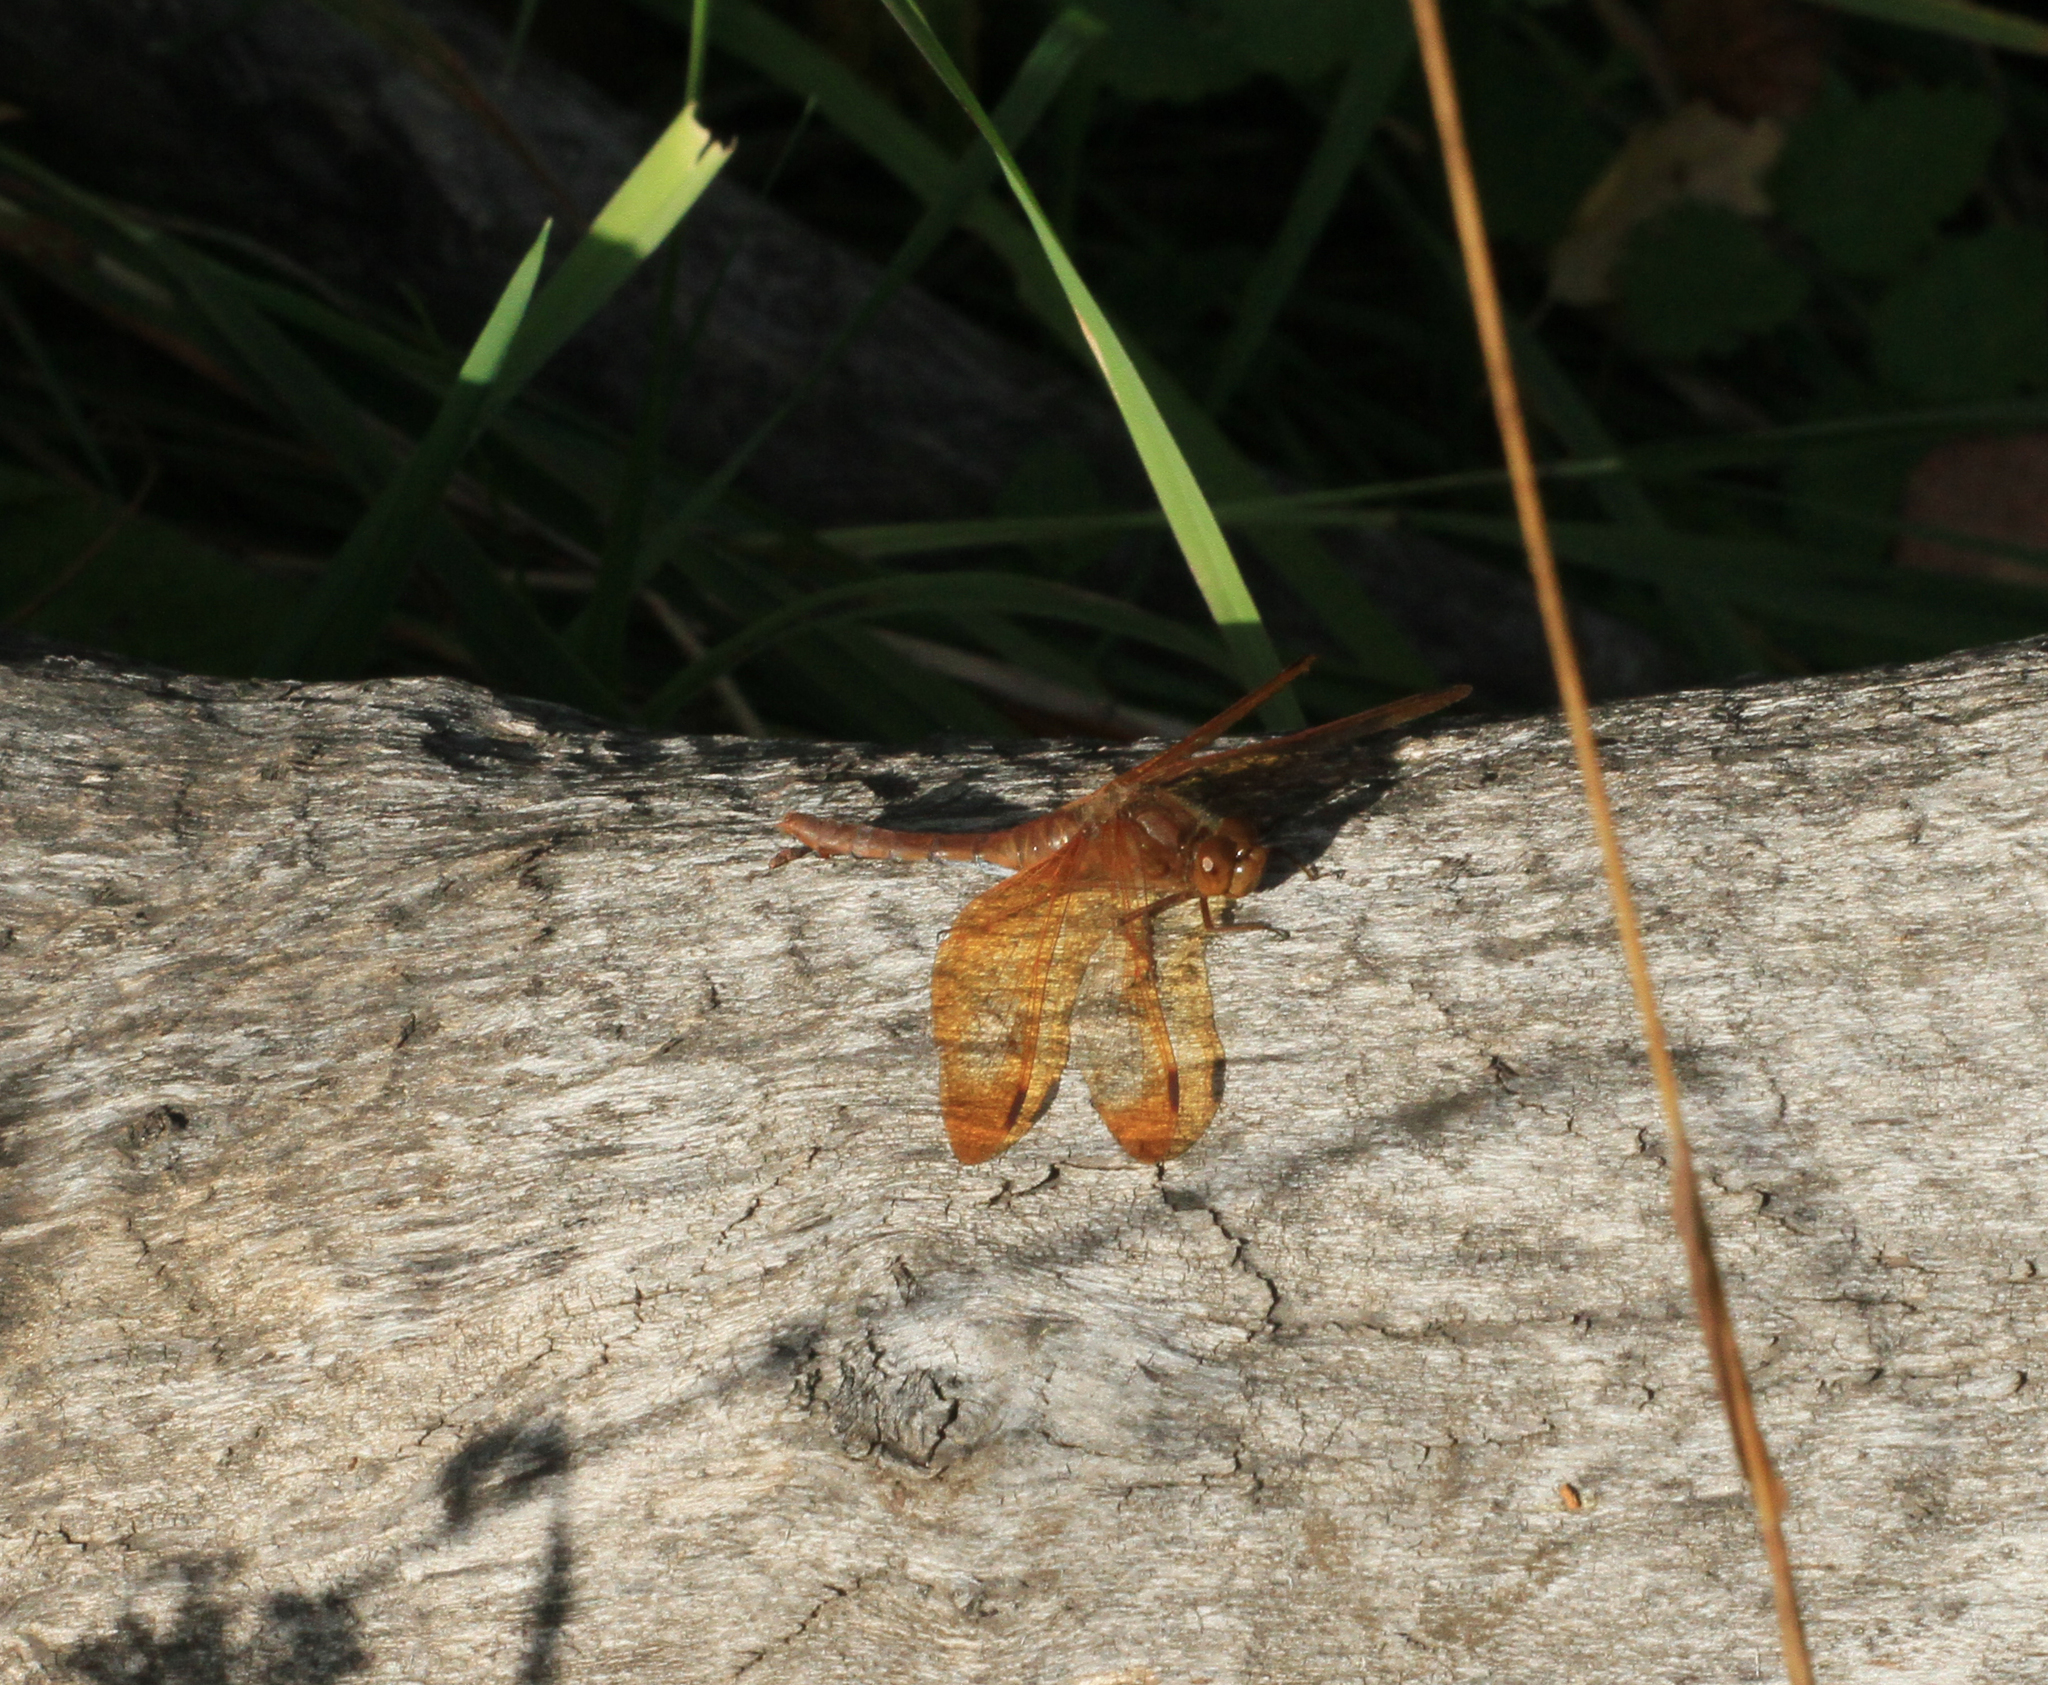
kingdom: Animalia
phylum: Arthropoda
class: Insecta
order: Odonata
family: Libellulidae
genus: Sympetrum
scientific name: Sympetrum croceolum
